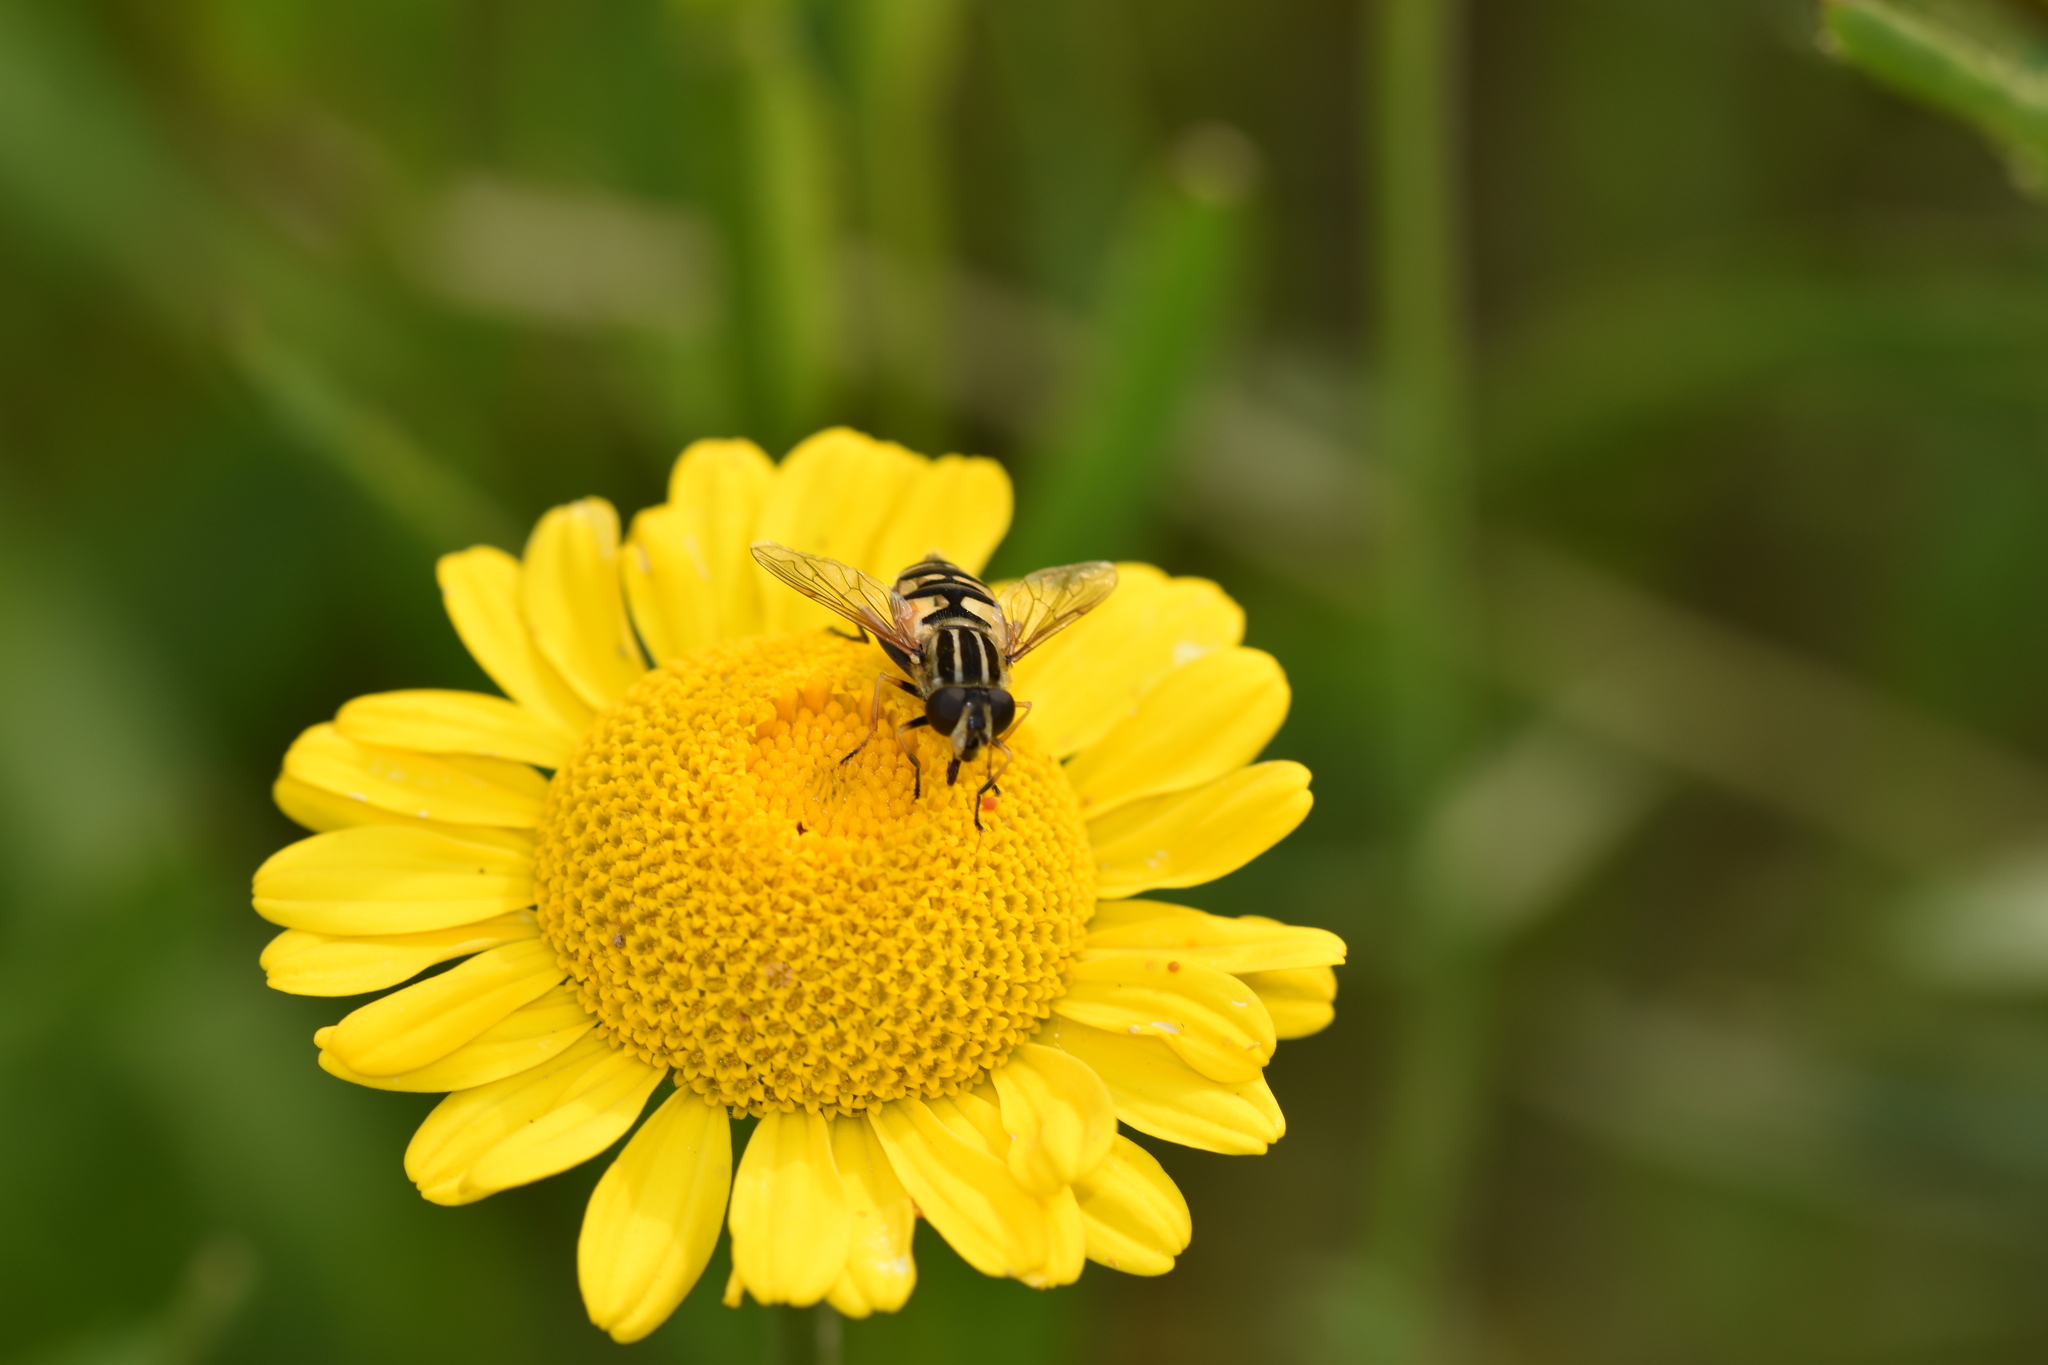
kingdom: Animalia
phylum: Arthropoda
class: Insecta
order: Diptera
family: Syrphidae
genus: Helophilus
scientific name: Helophilus pendulus
